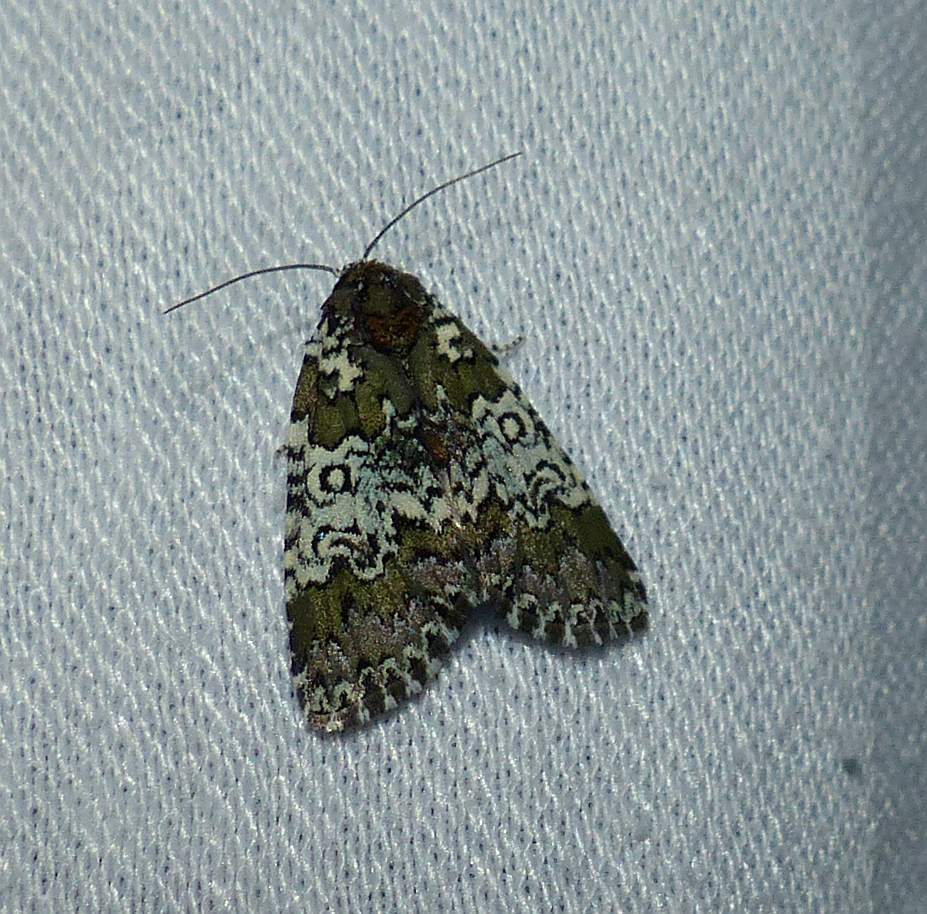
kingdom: Animalia
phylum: Arthropoda
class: Insecta
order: Lepidoptera
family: Noctuidae
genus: Cerma
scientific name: Cerma cora
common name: Bird dropping moth
